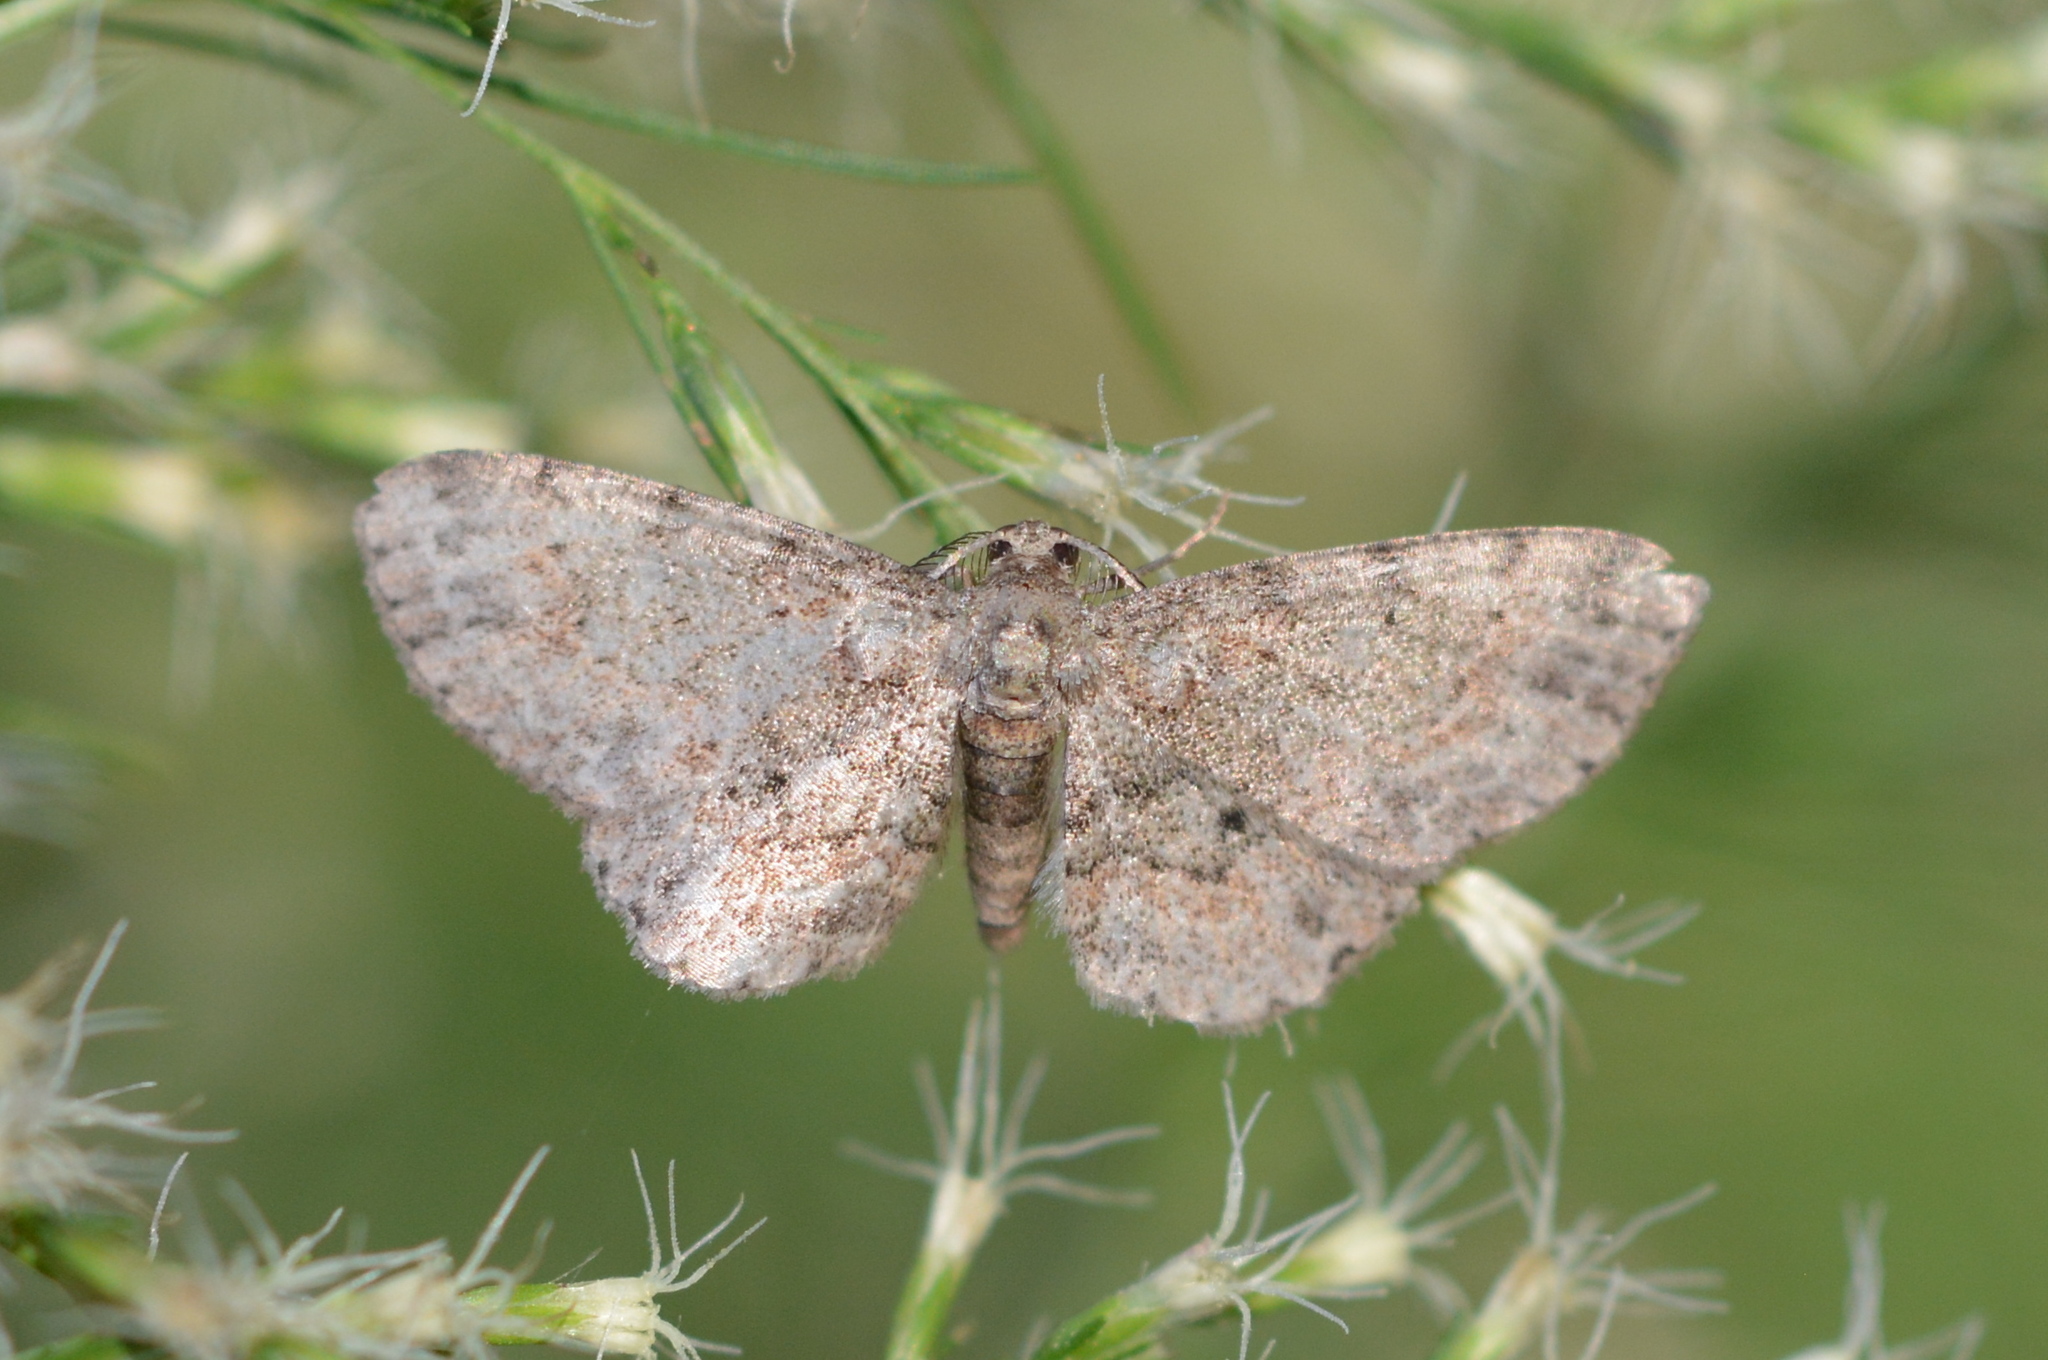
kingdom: Animalia
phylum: Arthropoda
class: Insecta
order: Lepidoptera
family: Geometridae
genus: Glenoides
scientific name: Glenoides texanaria
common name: Texas gray
